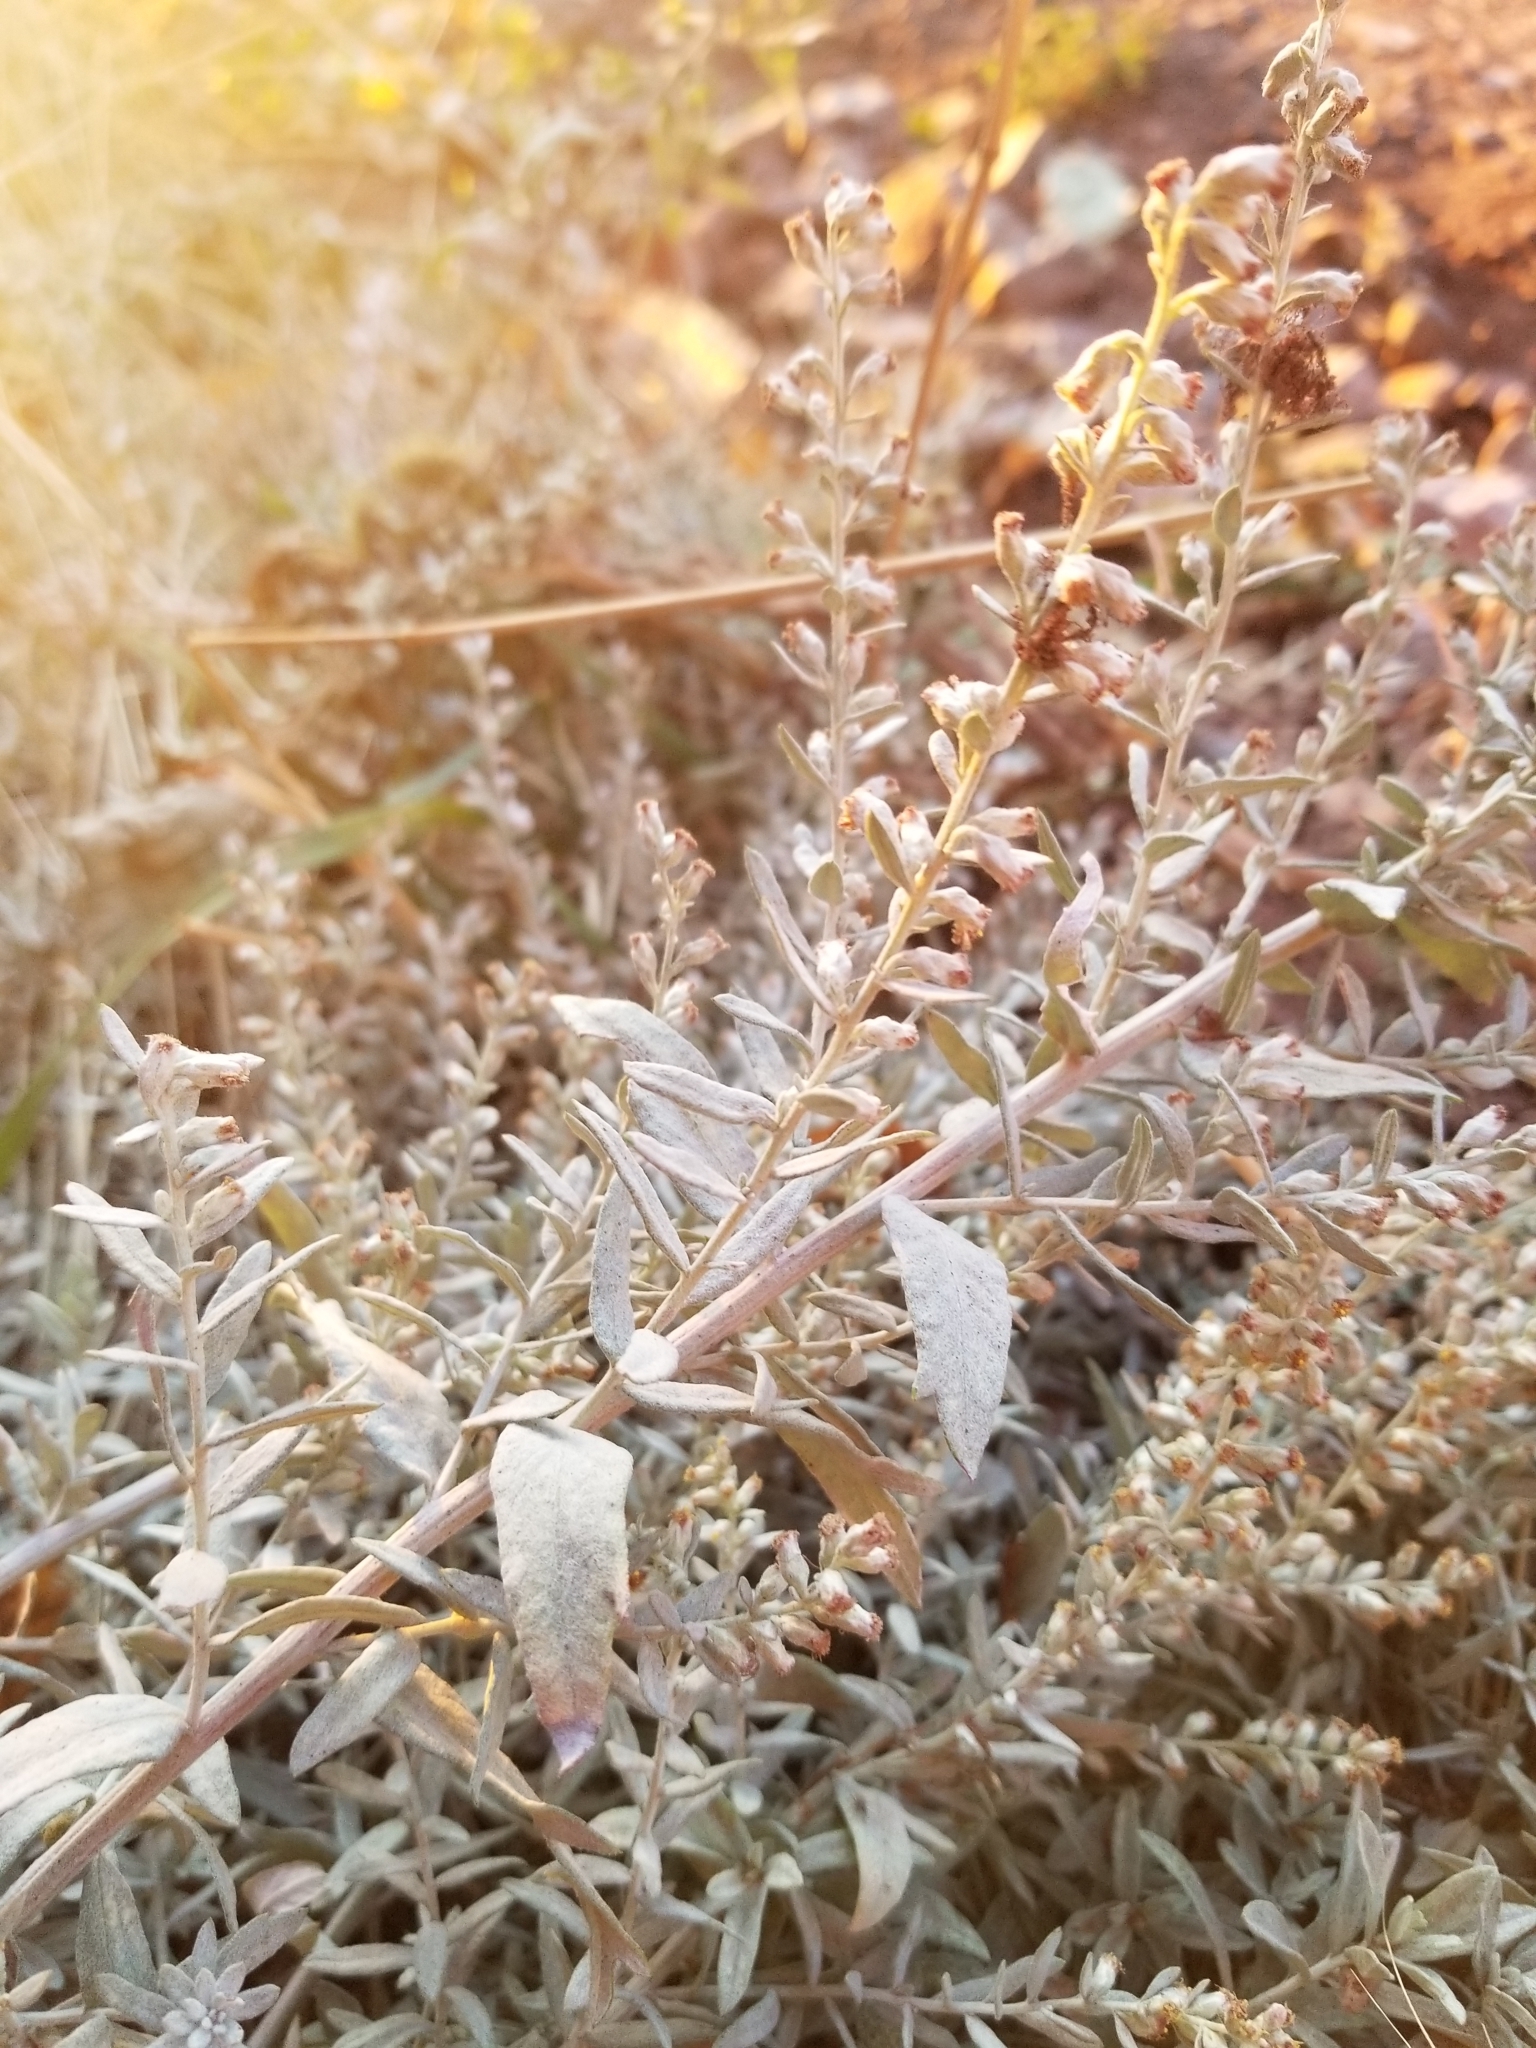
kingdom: Plantae
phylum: Tracheophyta
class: Magnoliopsida
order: Asterales
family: Asteraceae
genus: Artemisia
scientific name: Artemisia ludoviciana
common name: Western mugwort
